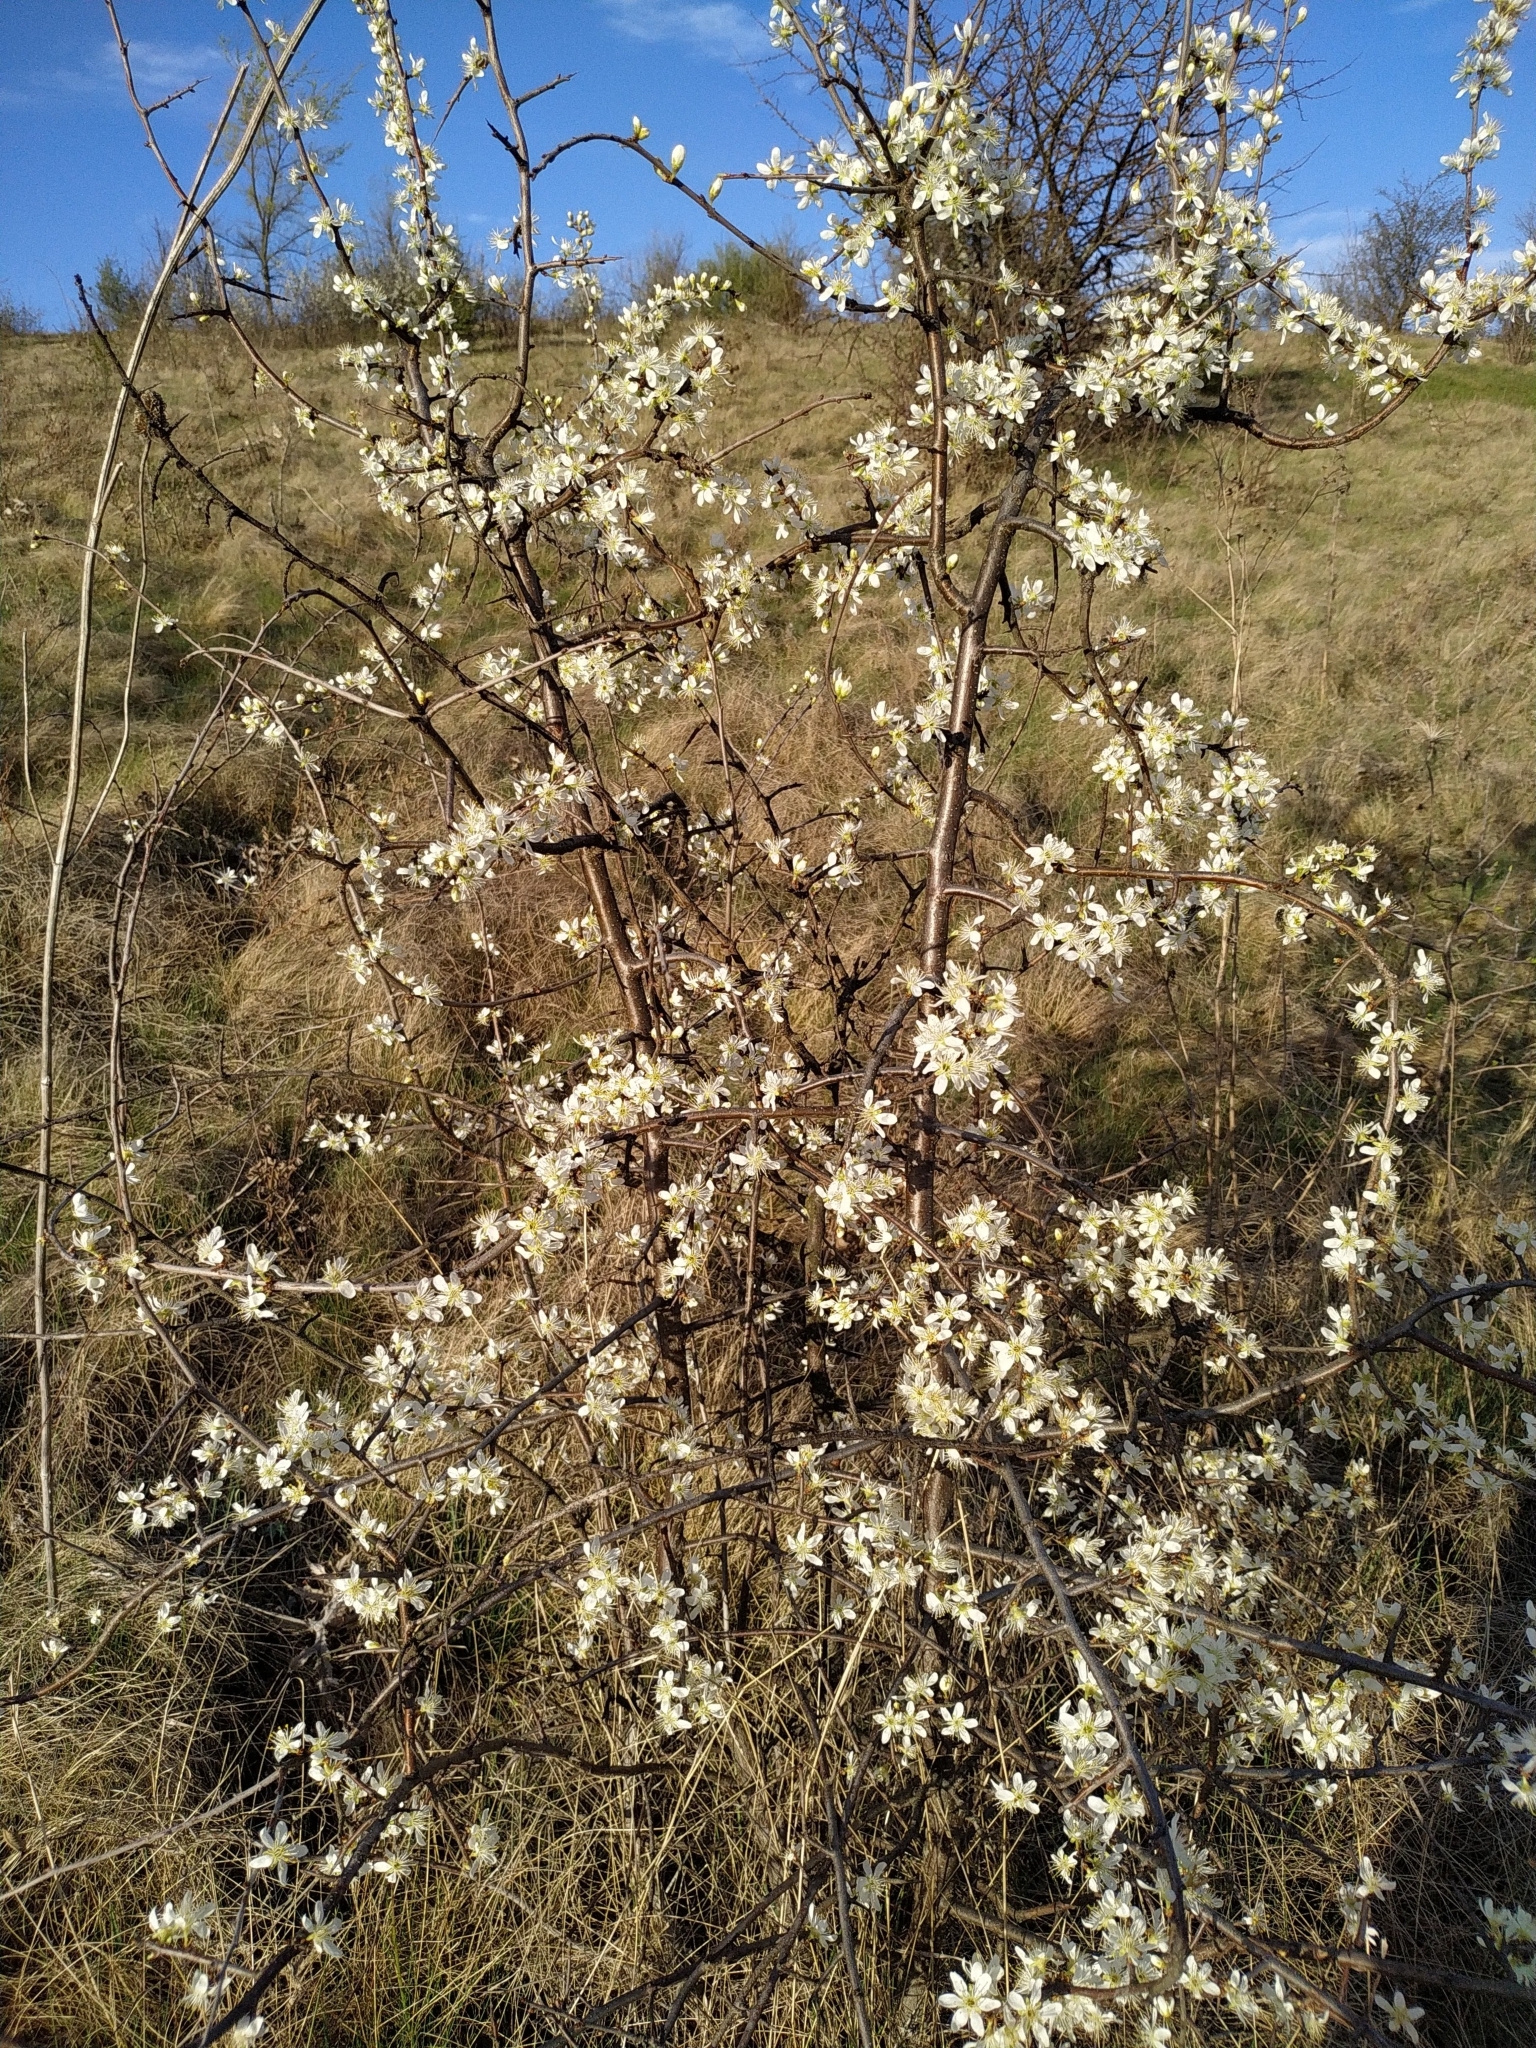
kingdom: Plantae
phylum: Tracheophyta
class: Magnoliopsida
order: Rosales
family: Rosaceae
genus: Prunus
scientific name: Prunus spinosa
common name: Blackthorn
